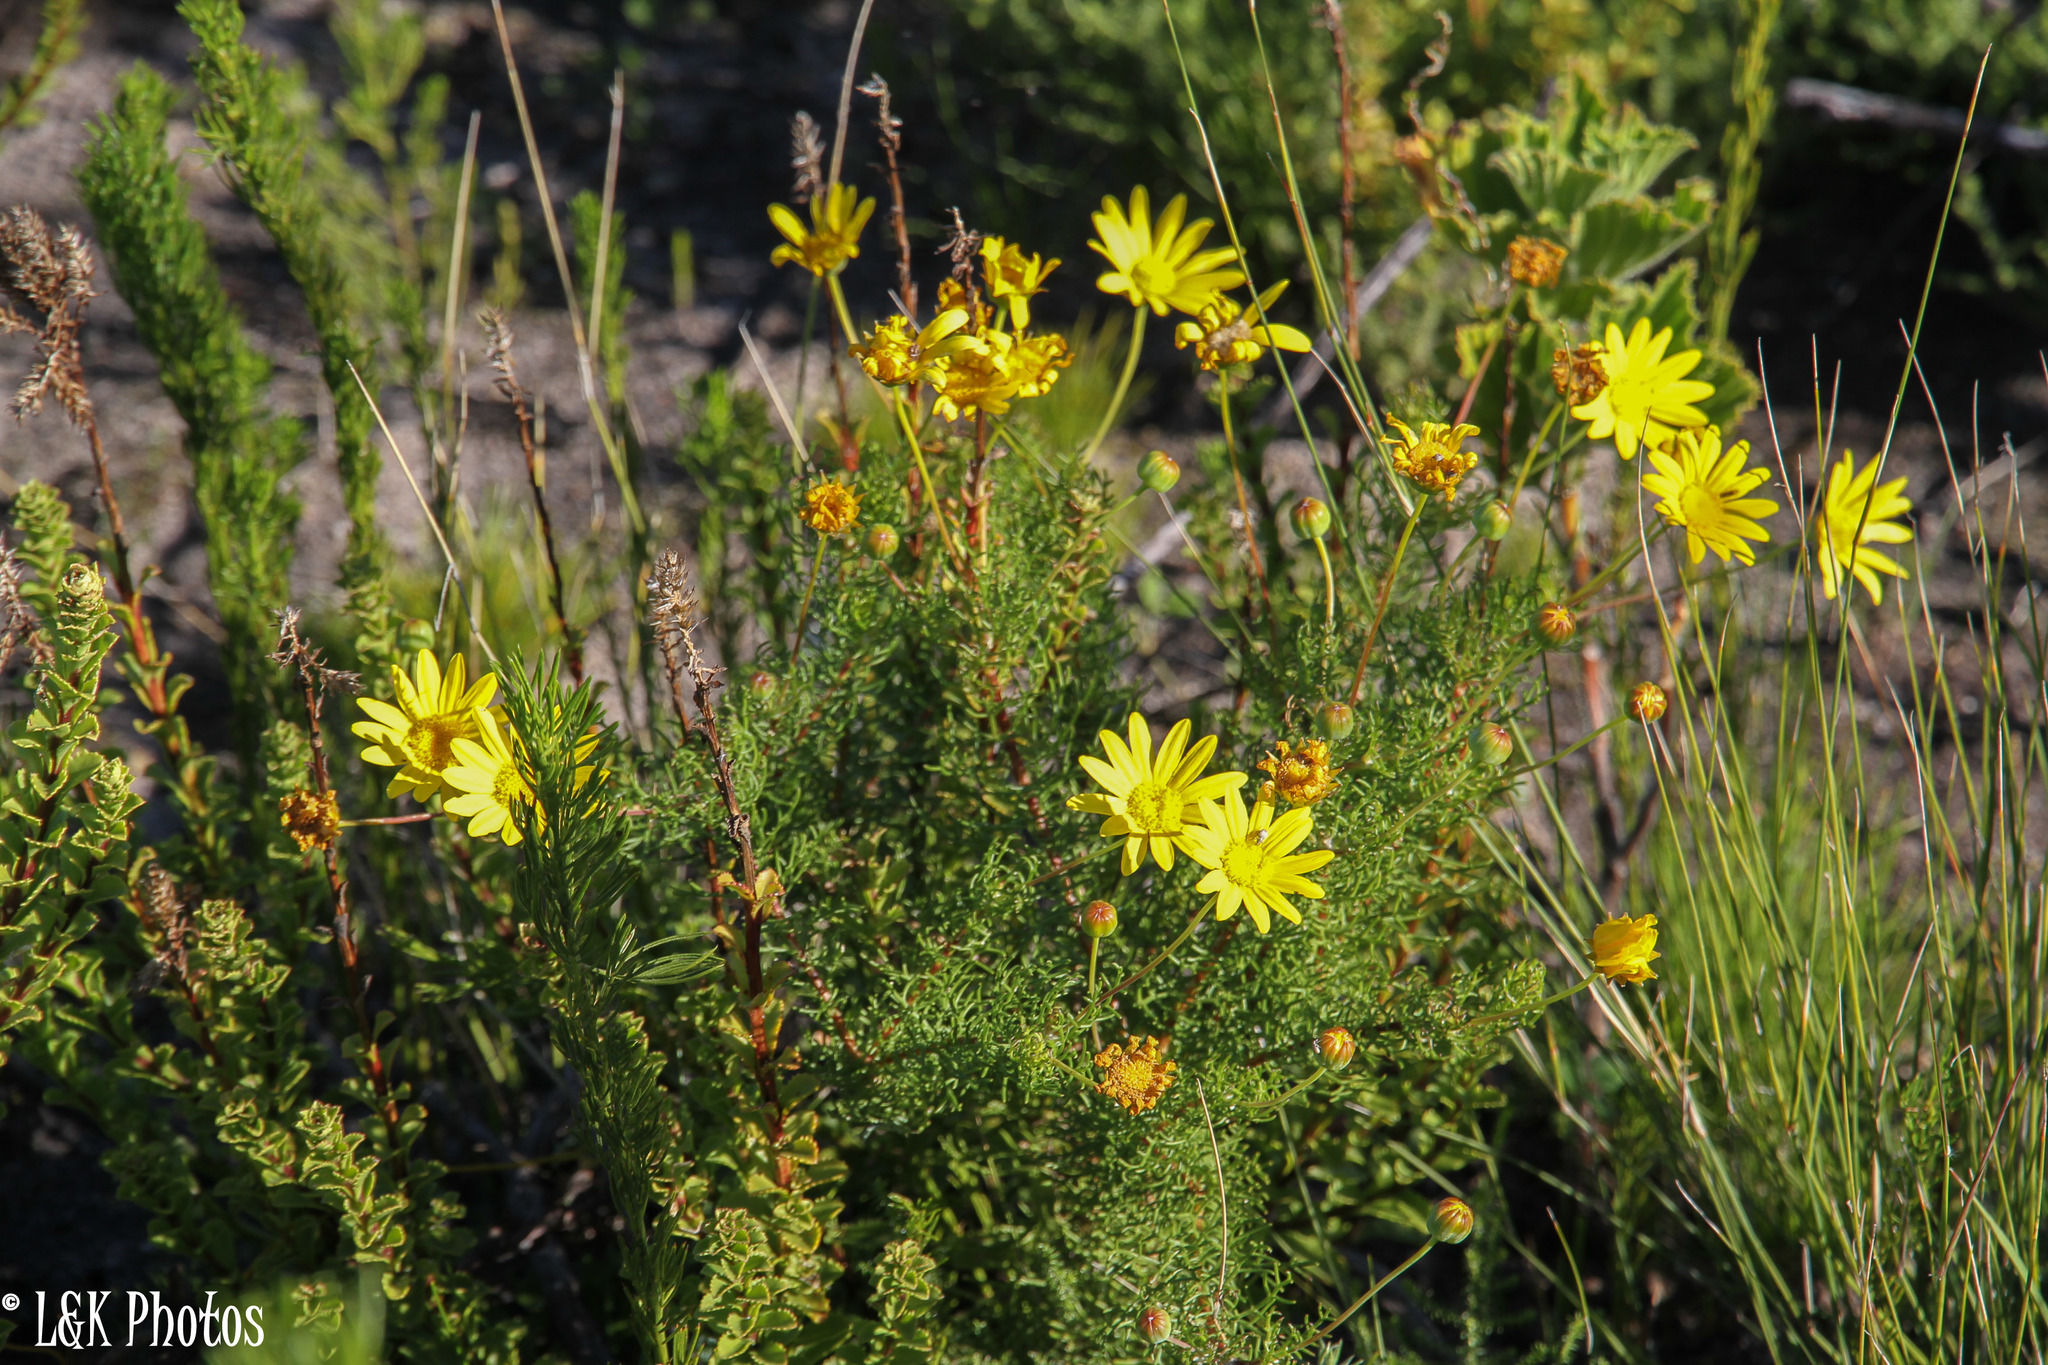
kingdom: Plantae
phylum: Tracheophyta
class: Magnoliopsida
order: Asterales
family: Asteraceae
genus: Euryops
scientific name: Euryops abrotanifolius
